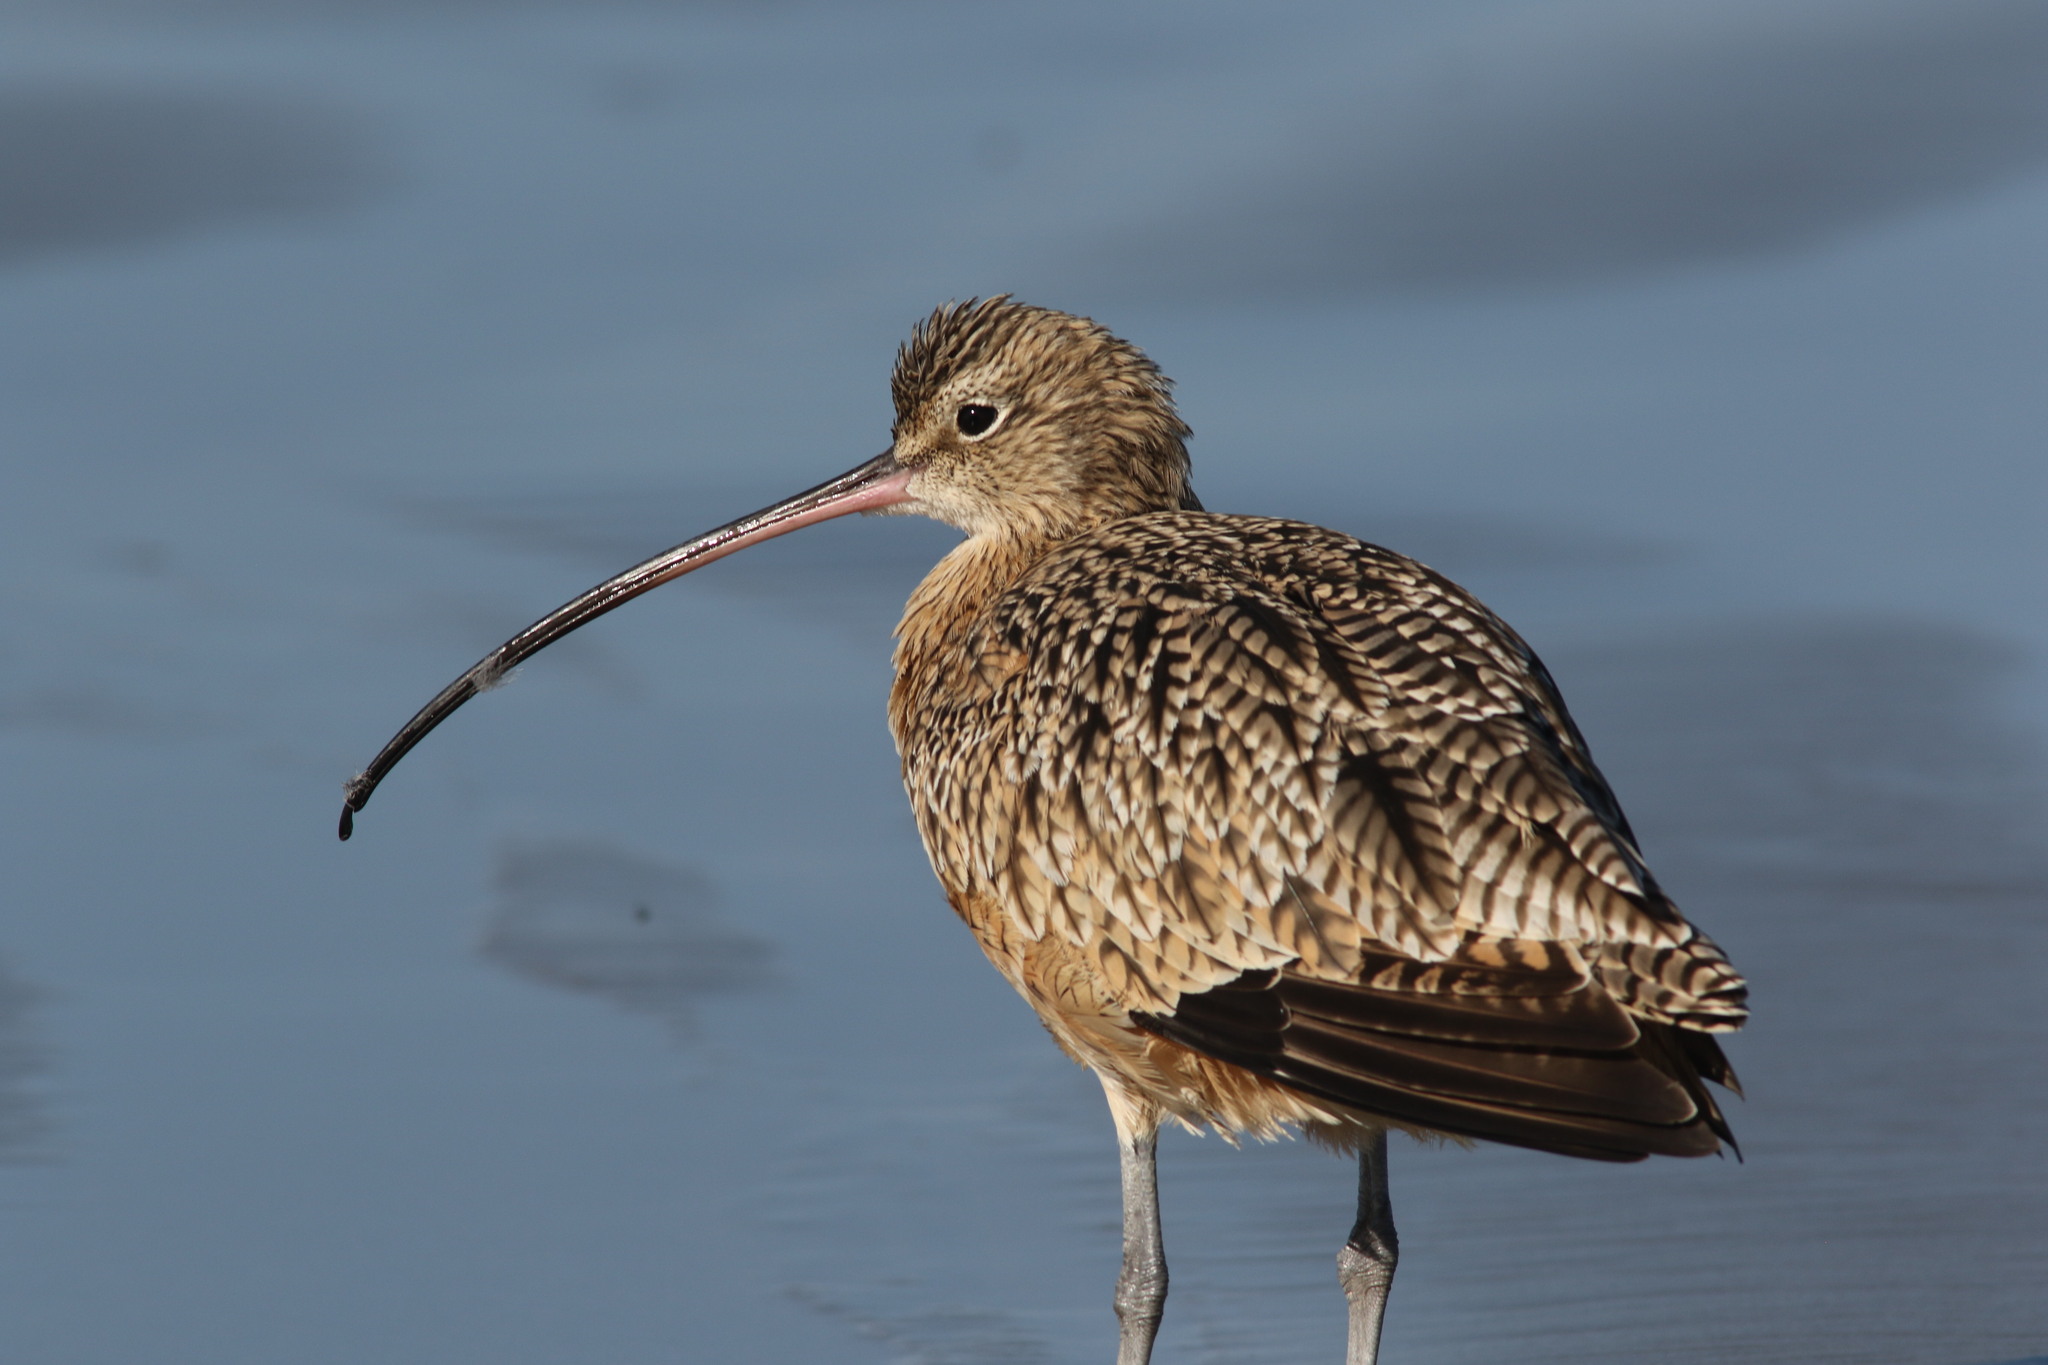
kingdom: Animalia
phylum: Chordata
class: Aves
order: Charadriiformes
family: Scolopacidae
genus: Numenius
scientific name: Numenius americanus
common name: Long-billed curlew
